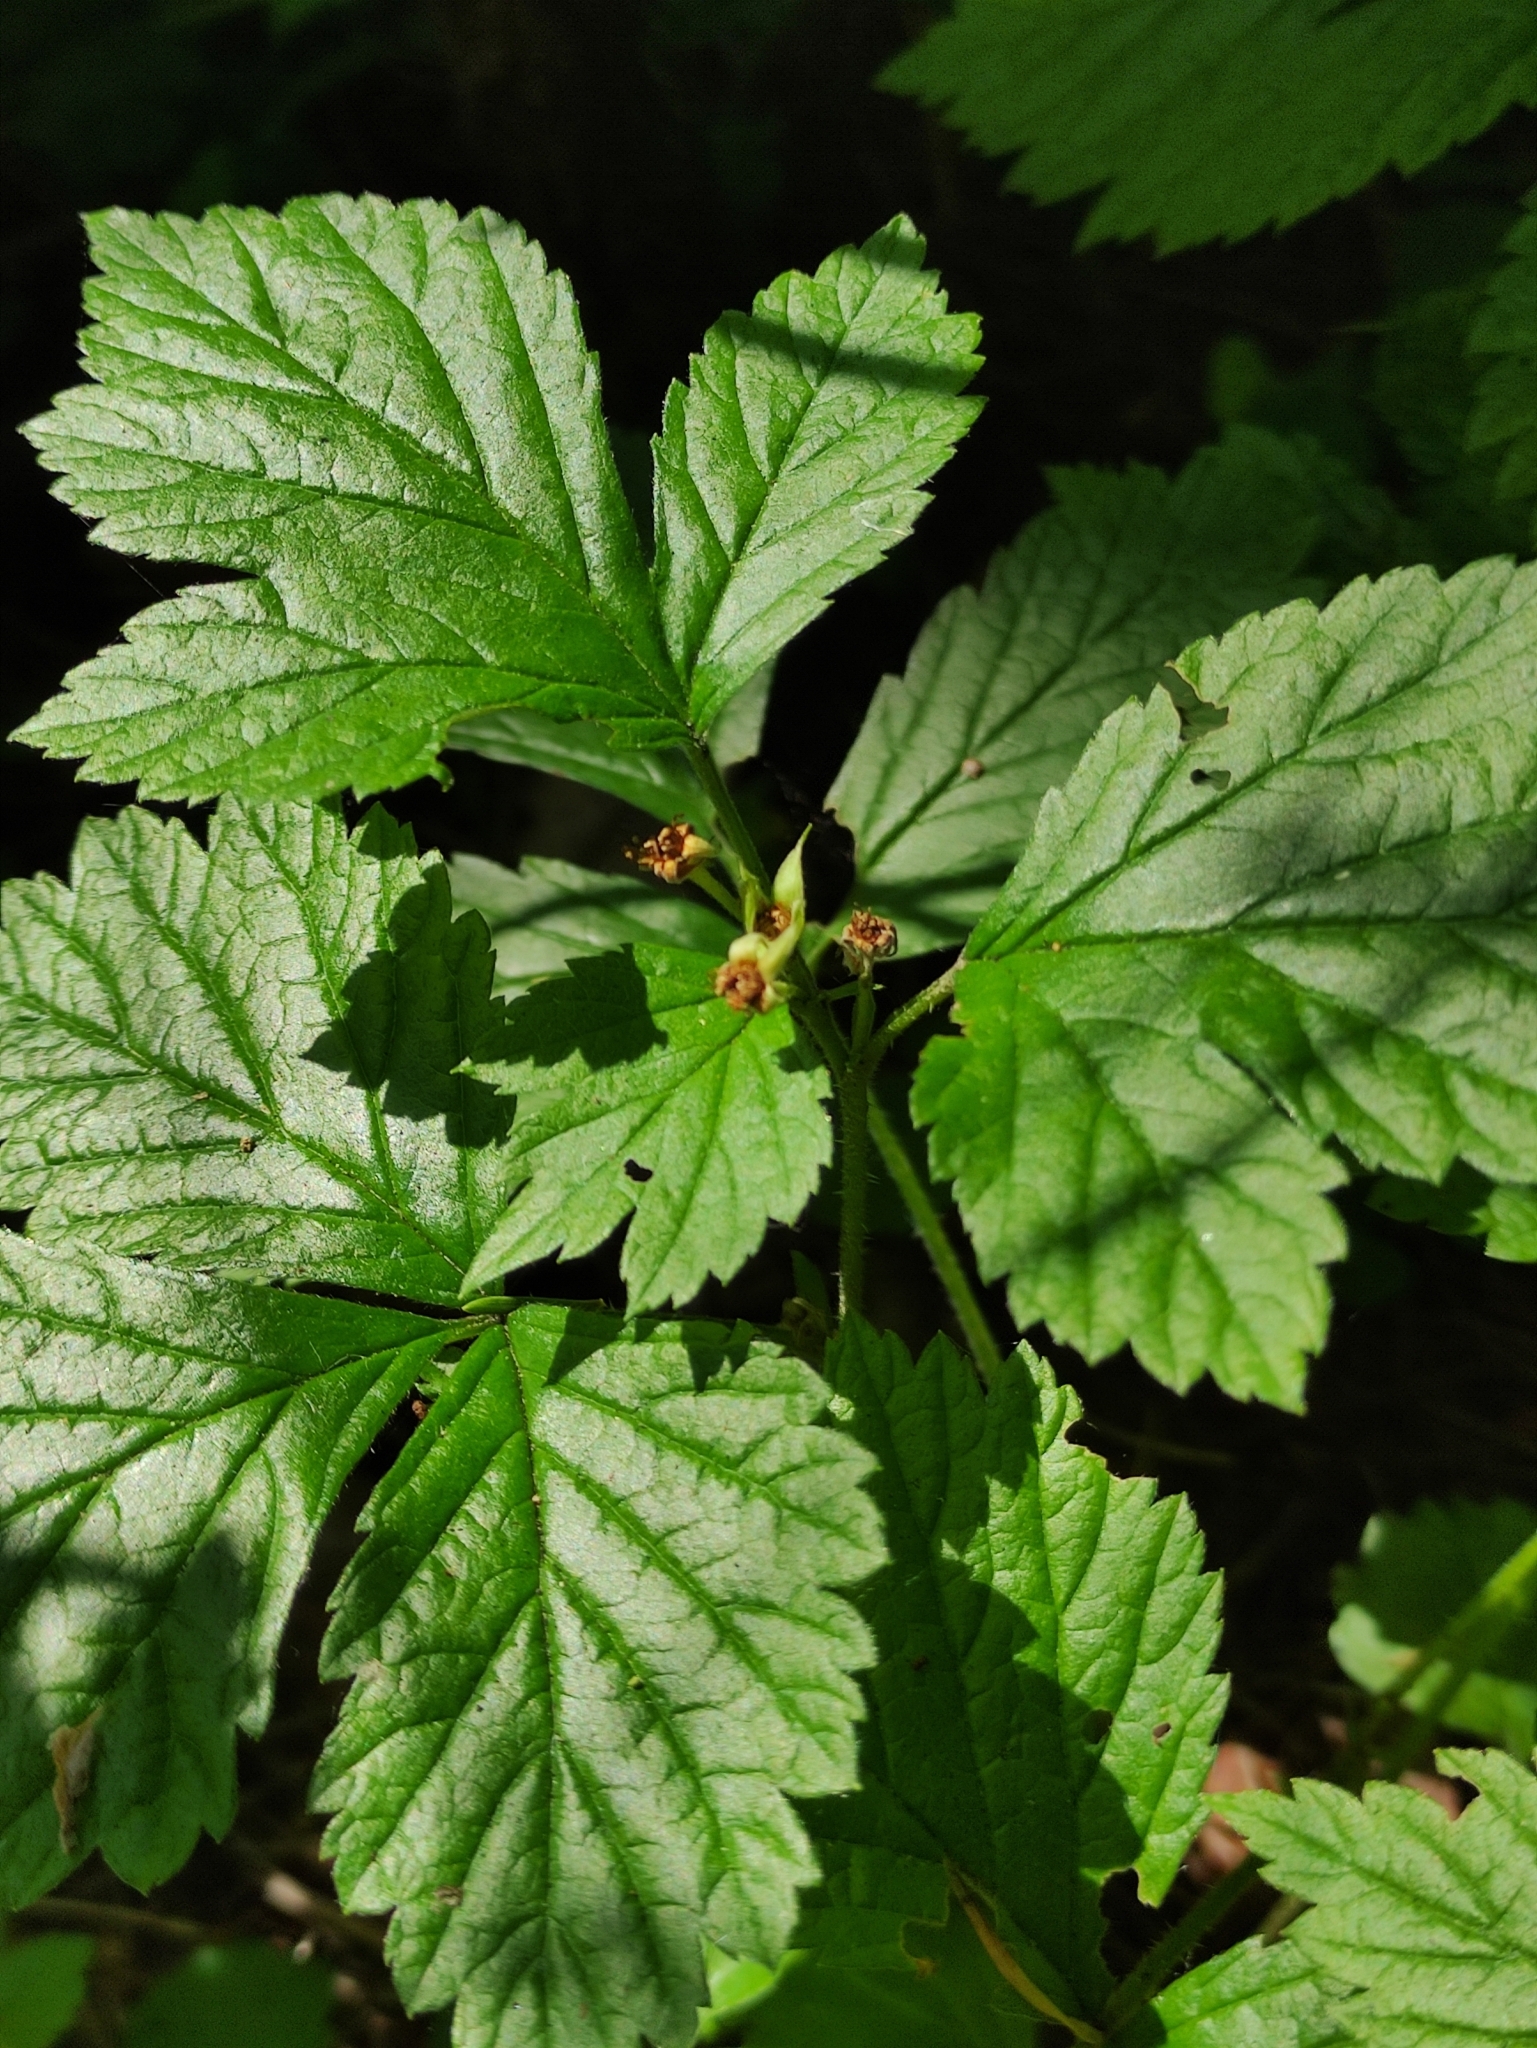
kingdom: Plantae
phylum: Tracheophyta
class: Magnoliopsida
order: Rosales
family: Rosaceae
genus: Rubus
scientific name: Rubus saxatilis
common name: Stone bramble
